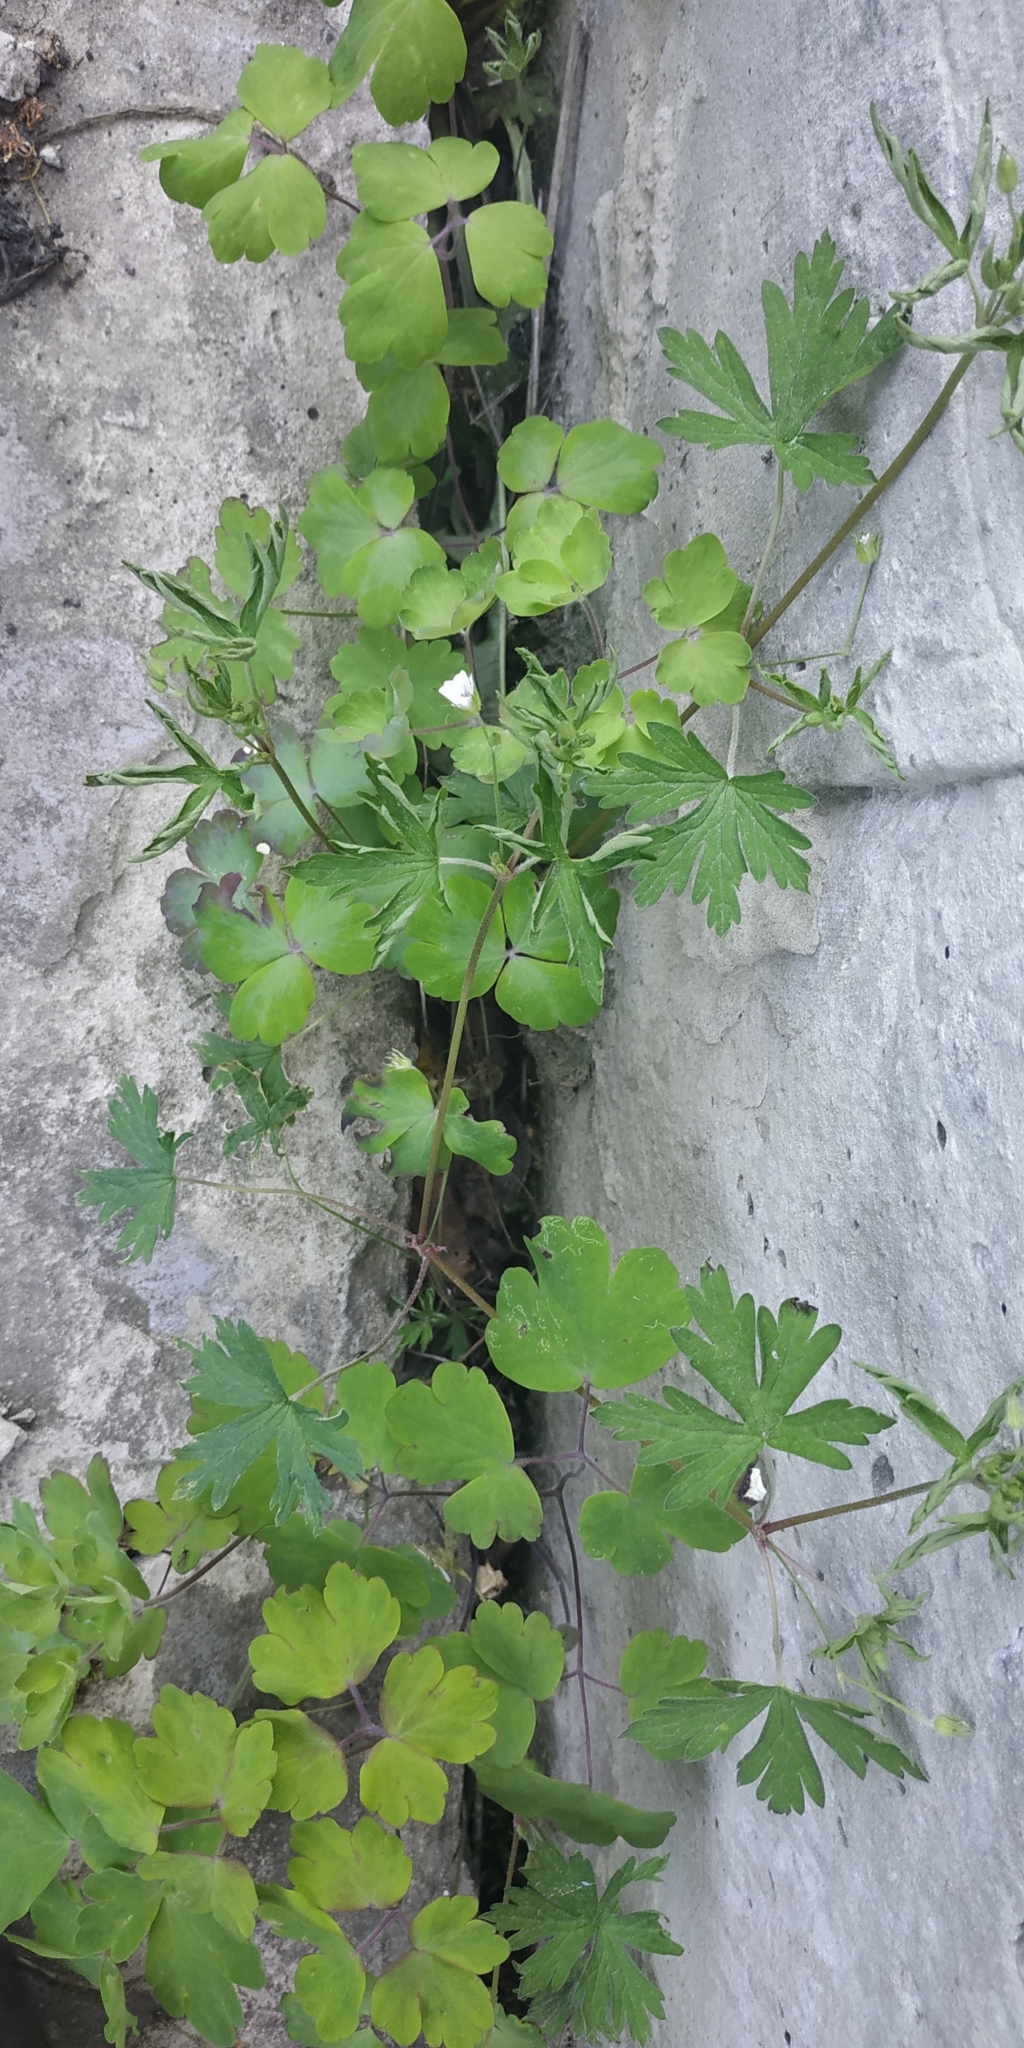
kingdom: Plantae
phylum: Tracheophyta
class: Magnoliopsida
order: Geraniales
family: Geraniaceae
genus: Geranium
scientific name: Geranium sibiricum
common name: Siberian crane's-bill
